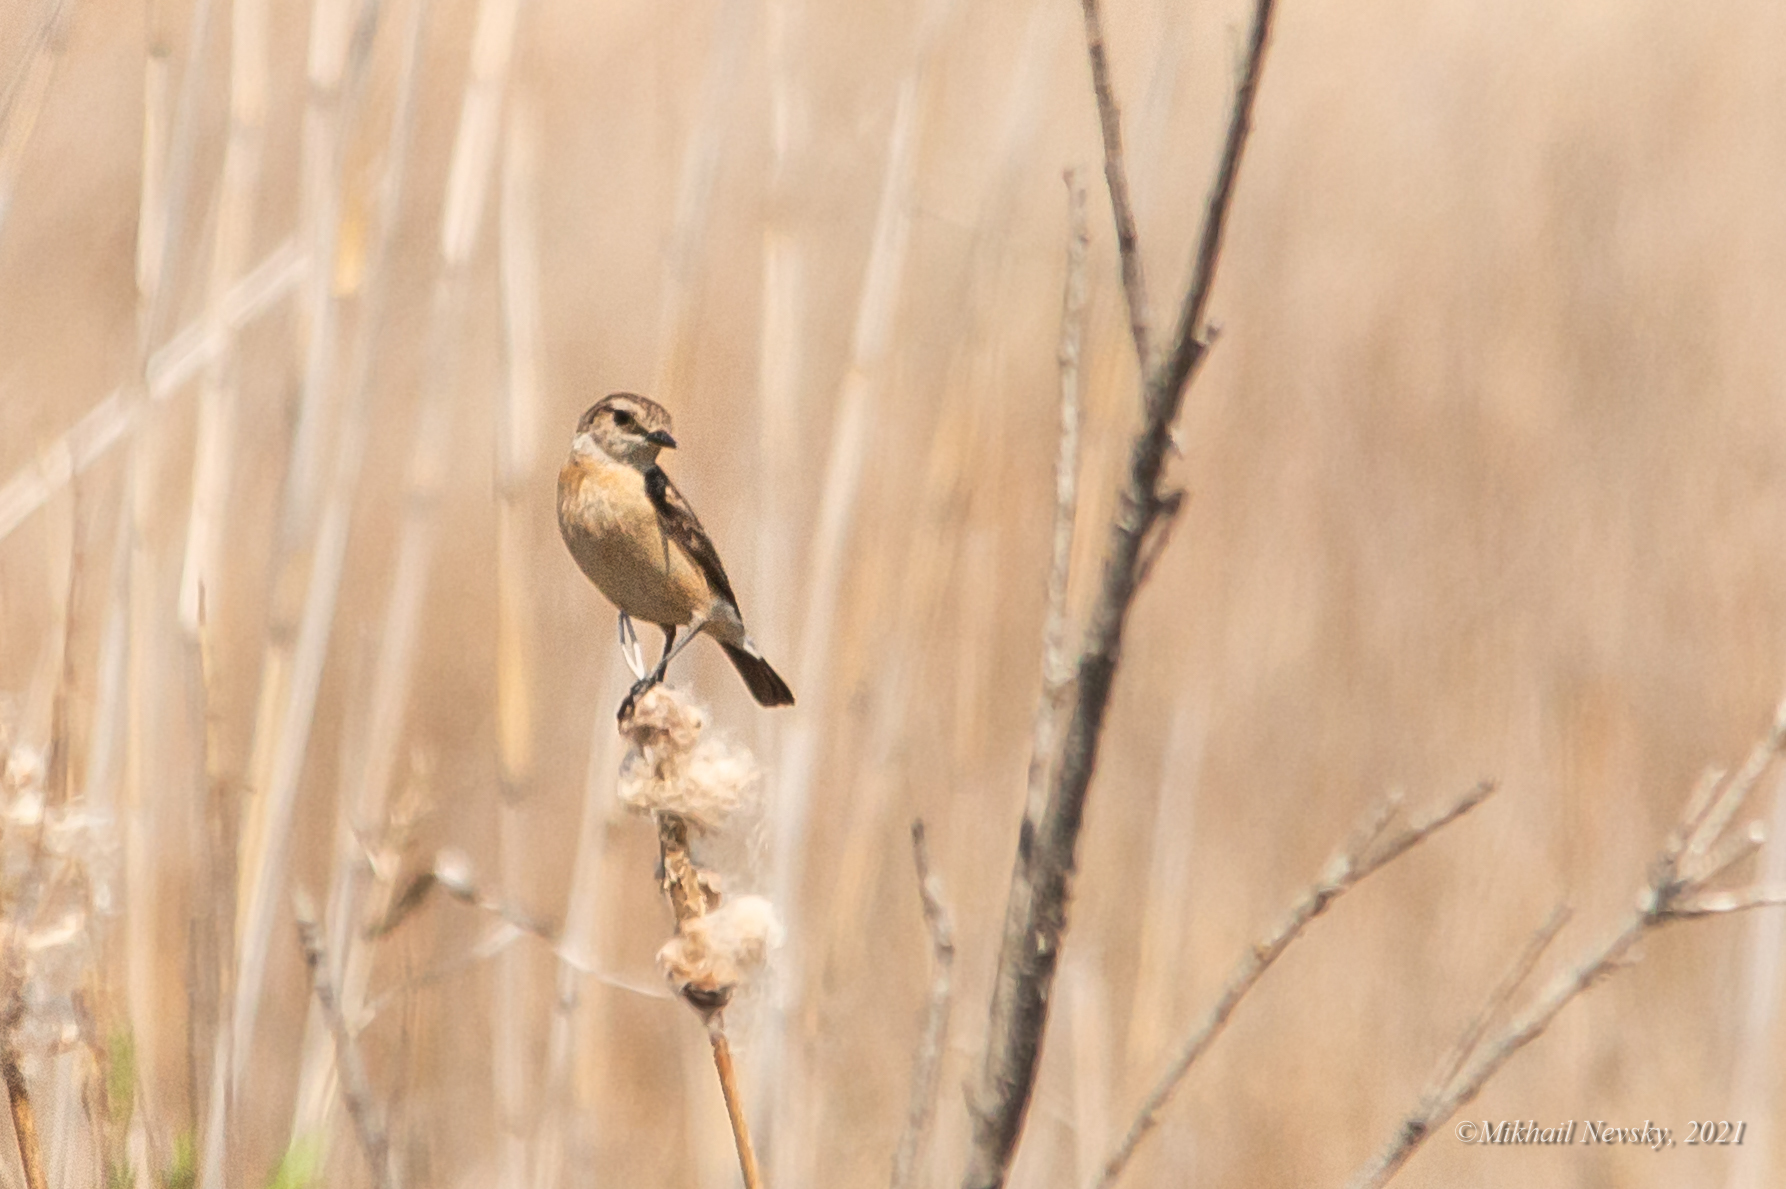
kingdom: Animalia
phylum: Chordata
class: Aves
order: Passeriformes
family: Muscicapidae
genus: Saxicola
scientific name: Saxicola stejnegeri
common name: Stejneger's stonechat
